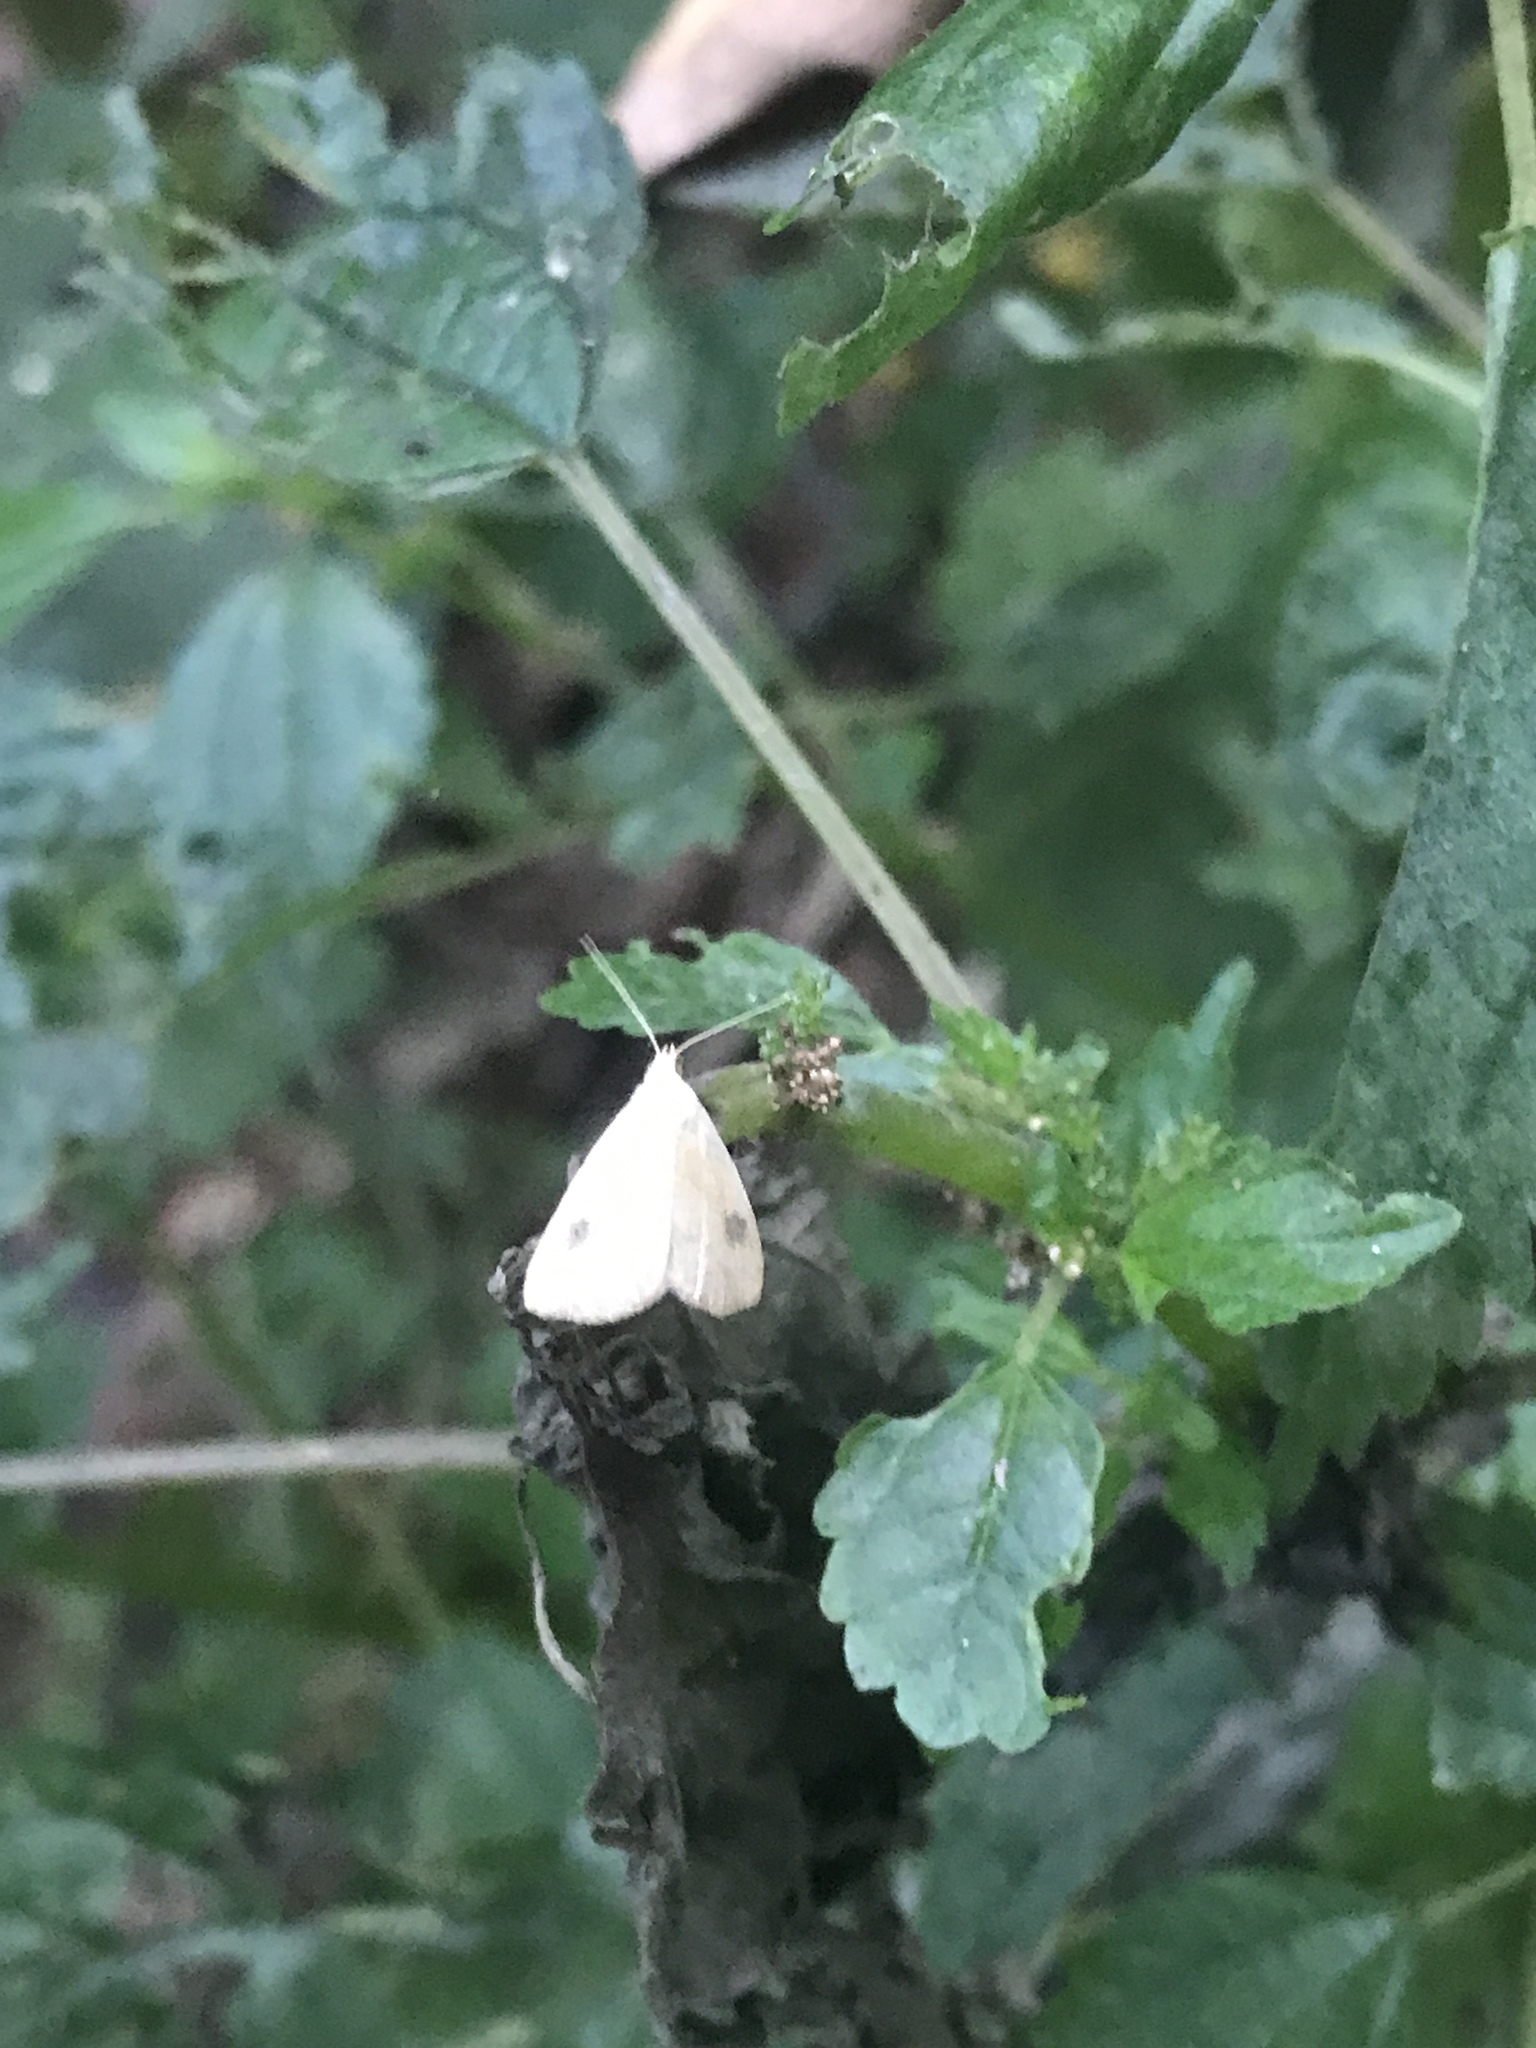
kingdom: Animalia
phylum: Arthropoda
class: Insecta
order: Lepidoptera
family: Erebidae
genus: Rivula
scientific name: Rivula propinqualis
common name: Spotted grass moth
